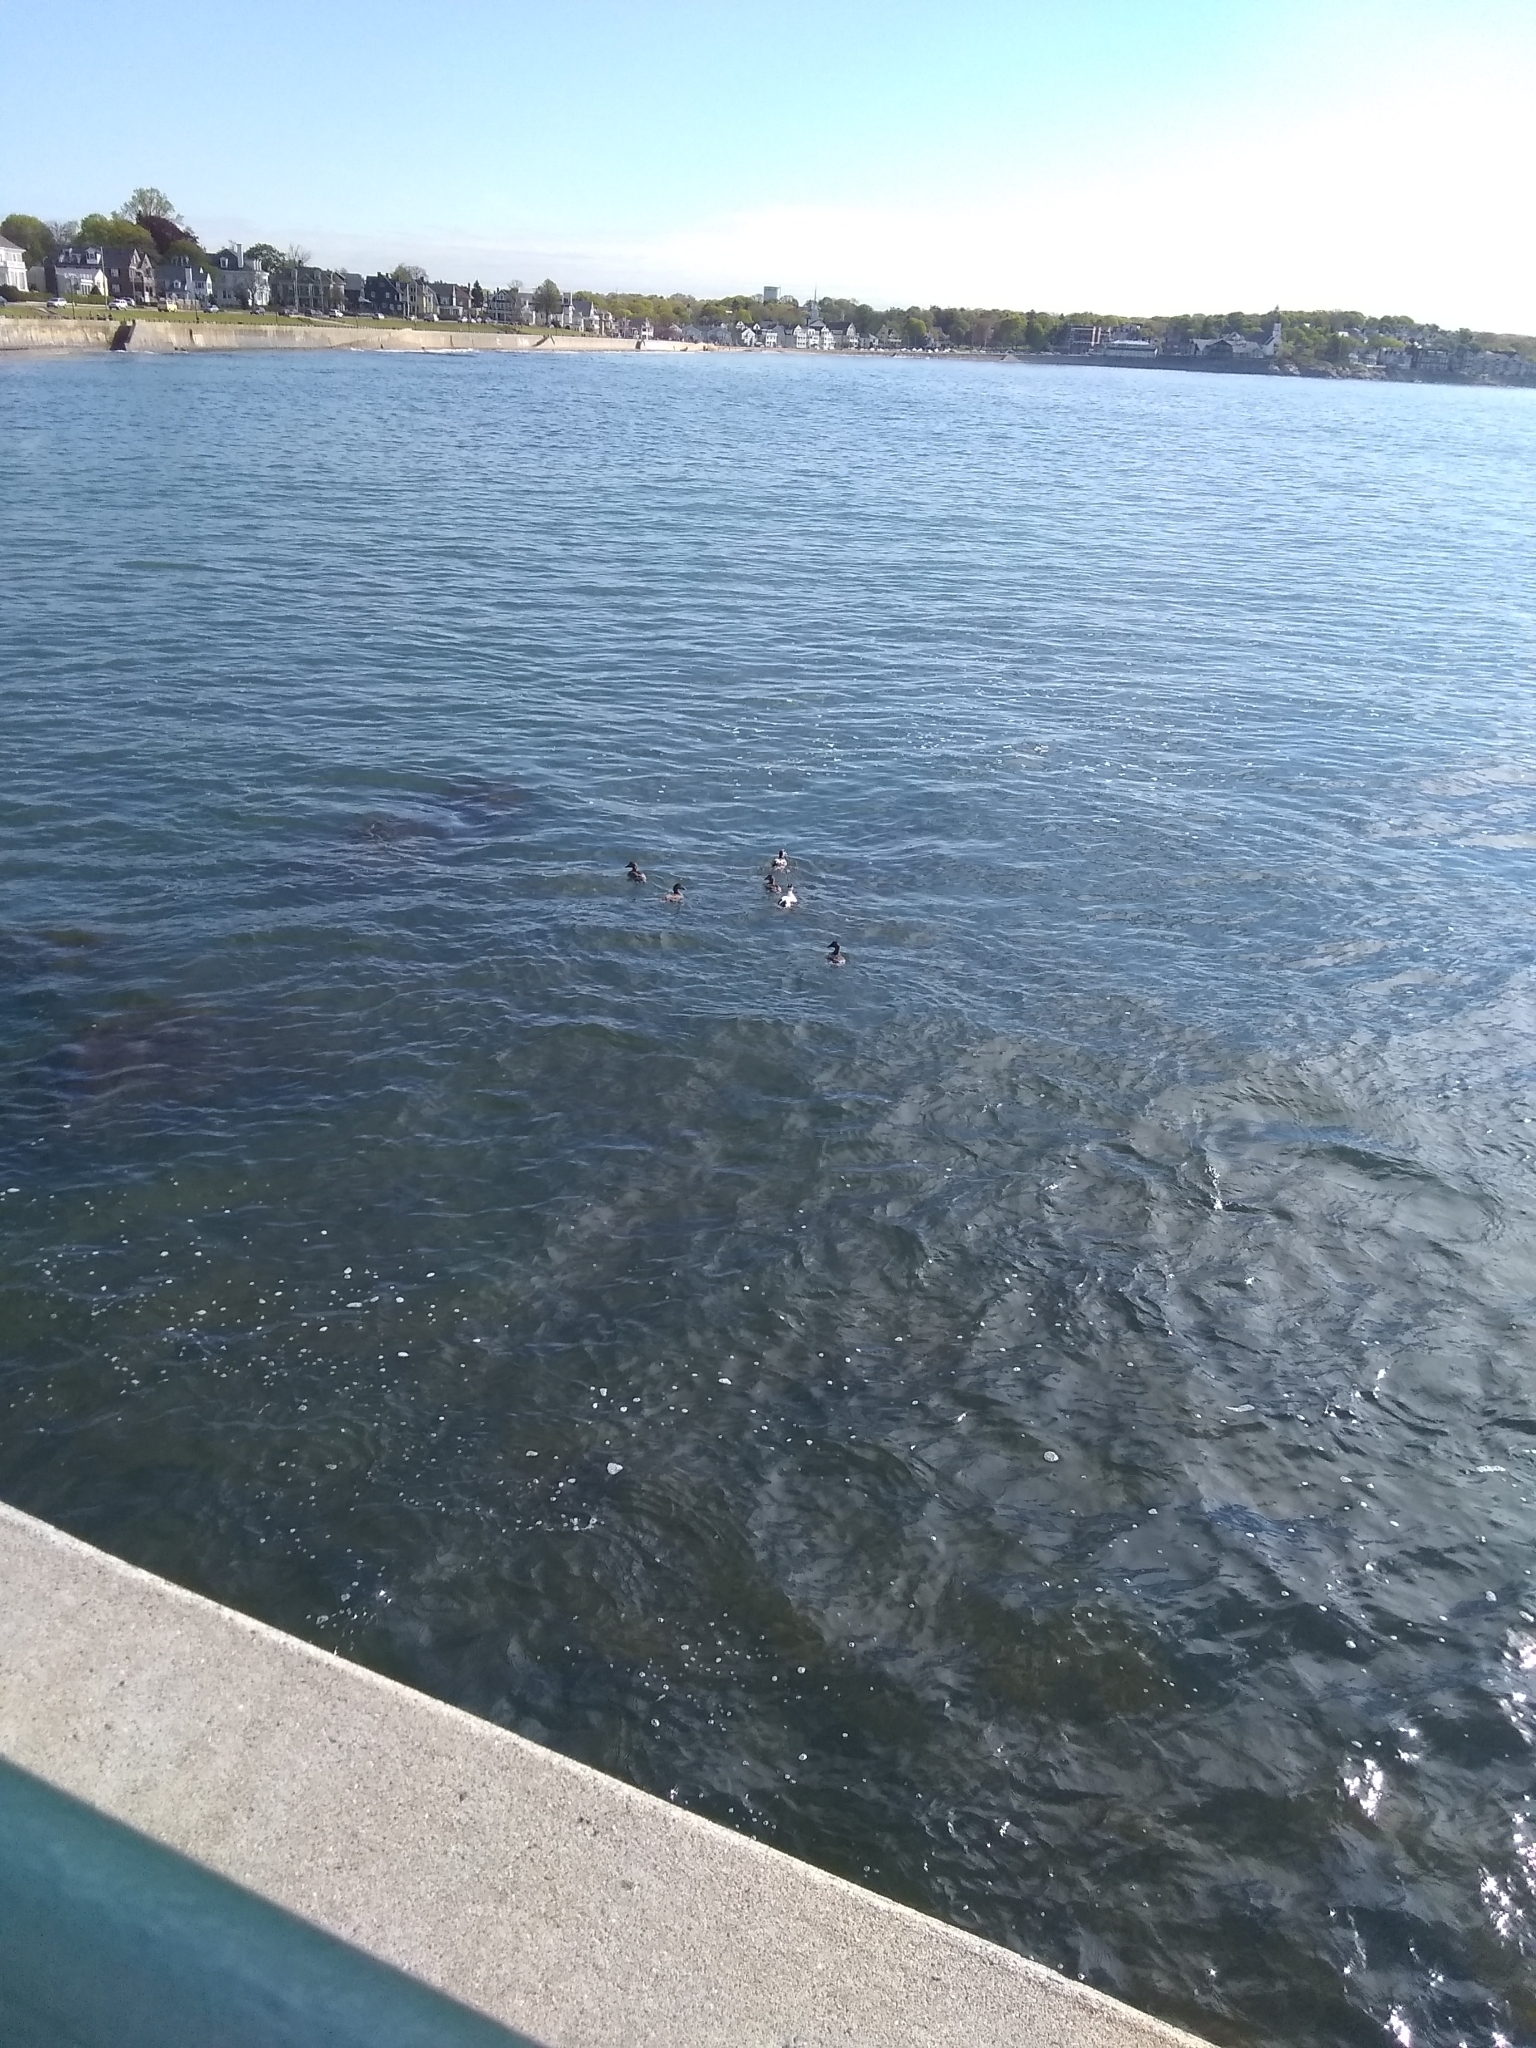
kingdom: Animalia
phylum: Chordata
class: Aves
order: Anseriformes
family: Anatidae
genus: Somateria
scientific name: Somateria mollissima
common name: Common eider
